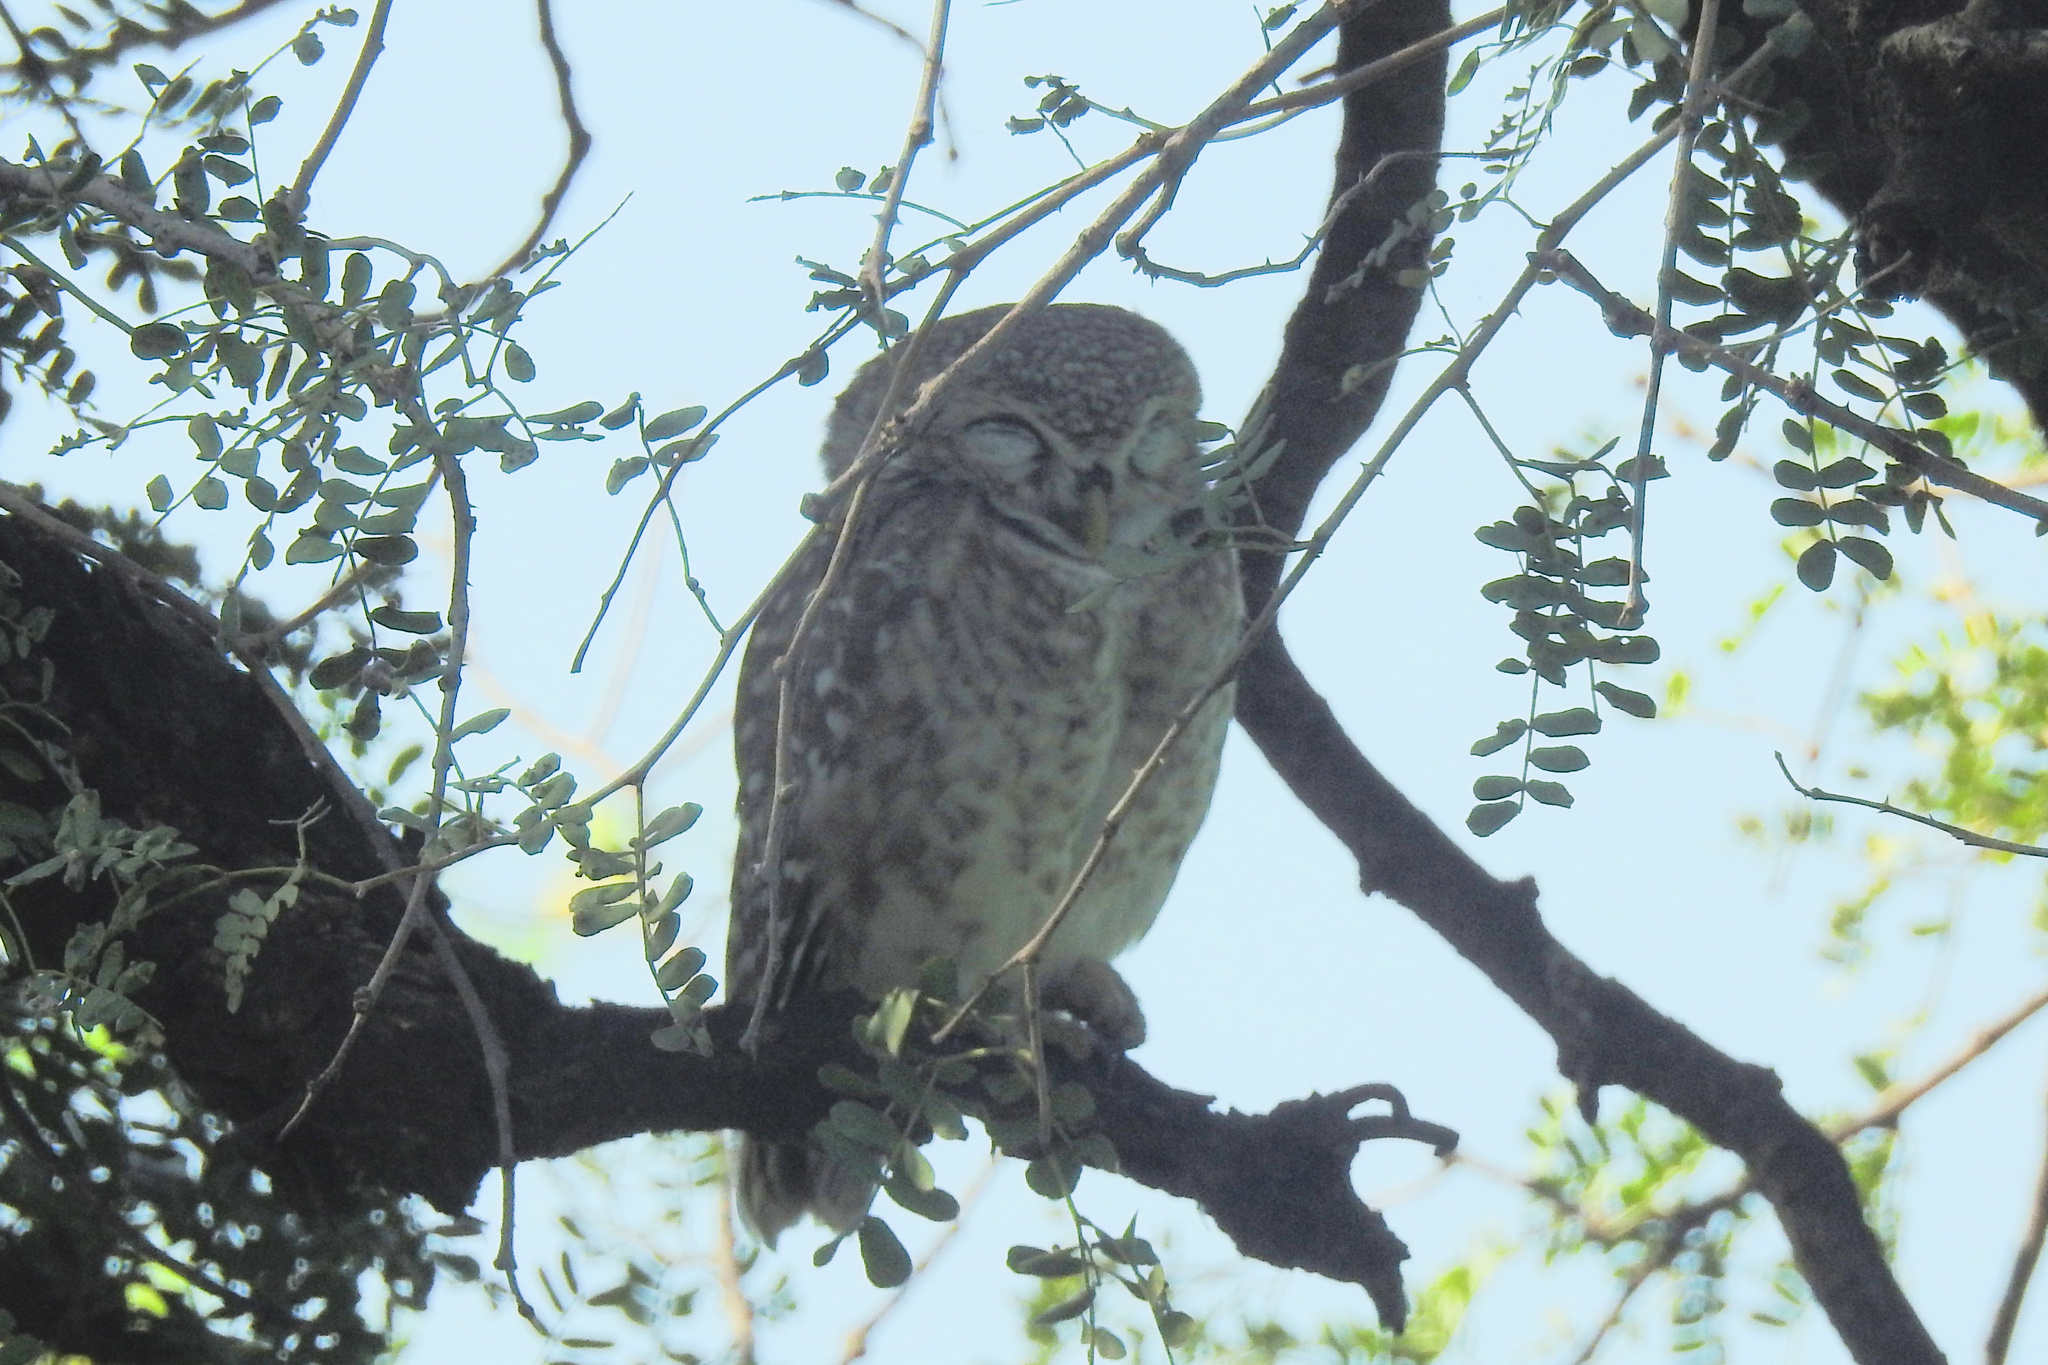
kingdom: Animalia
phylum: Chordata
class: Aves
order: Strigiformes
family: Strigidae
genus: Athene
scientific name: Athene brama
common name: Spotted owlet
